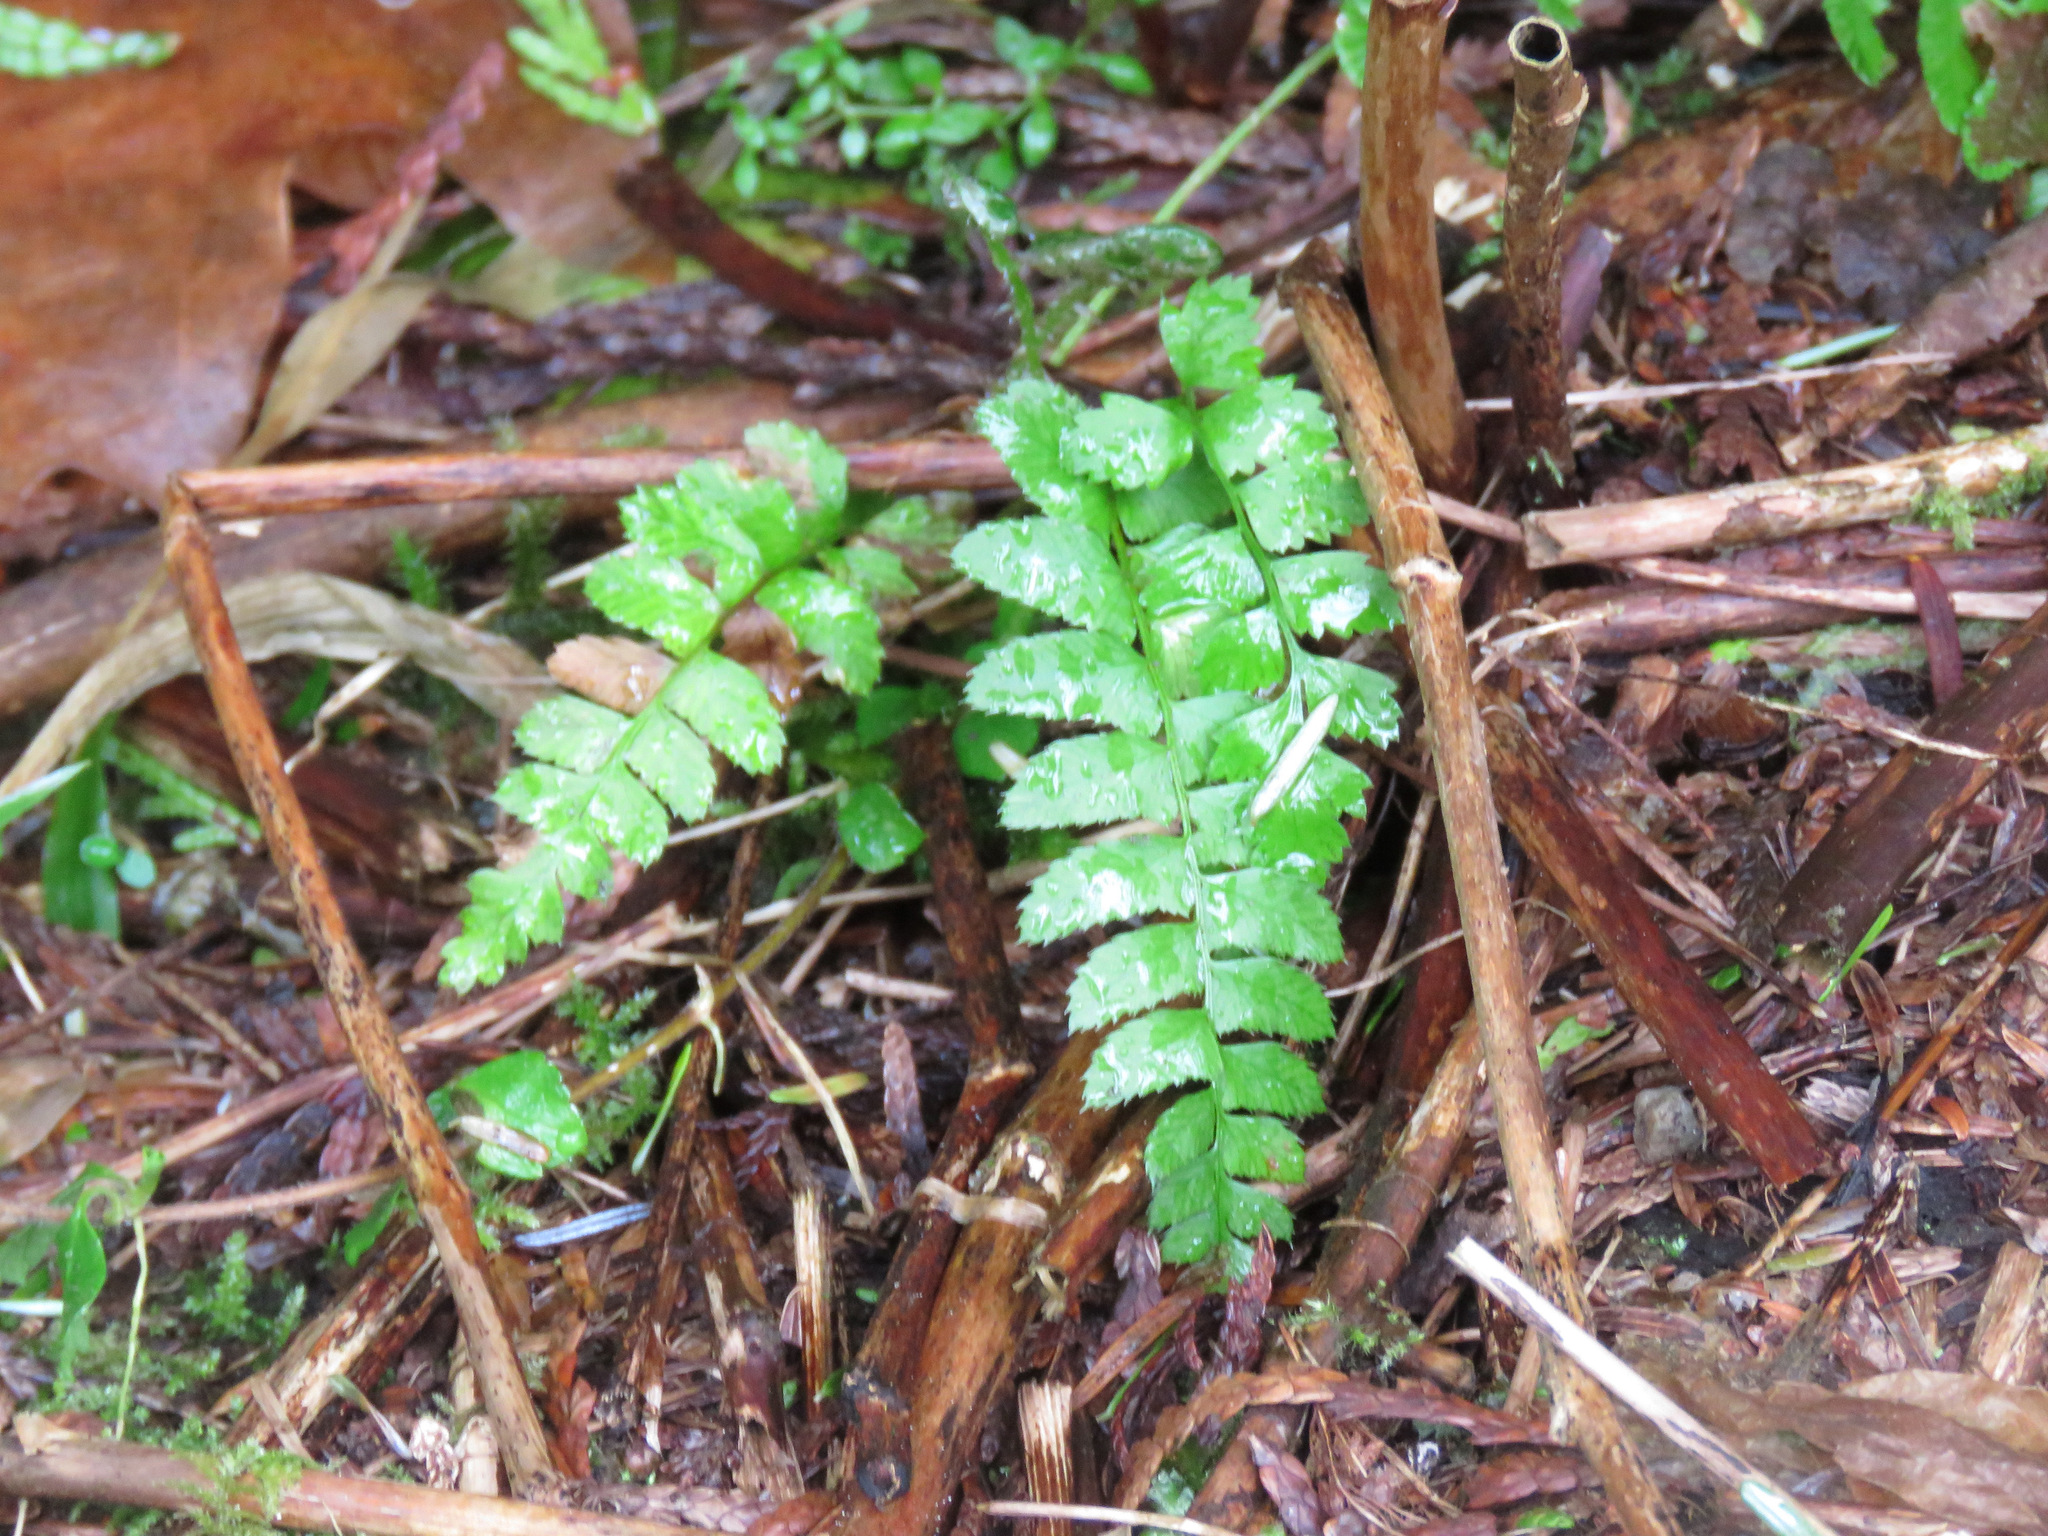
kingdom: Plantae
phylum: Tracheophyta
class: Polypodiopsida
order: Polypodiales
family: Dryopteridaceae
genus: Polystichum
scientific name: Polystichum munitum
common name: Western sword-fern
